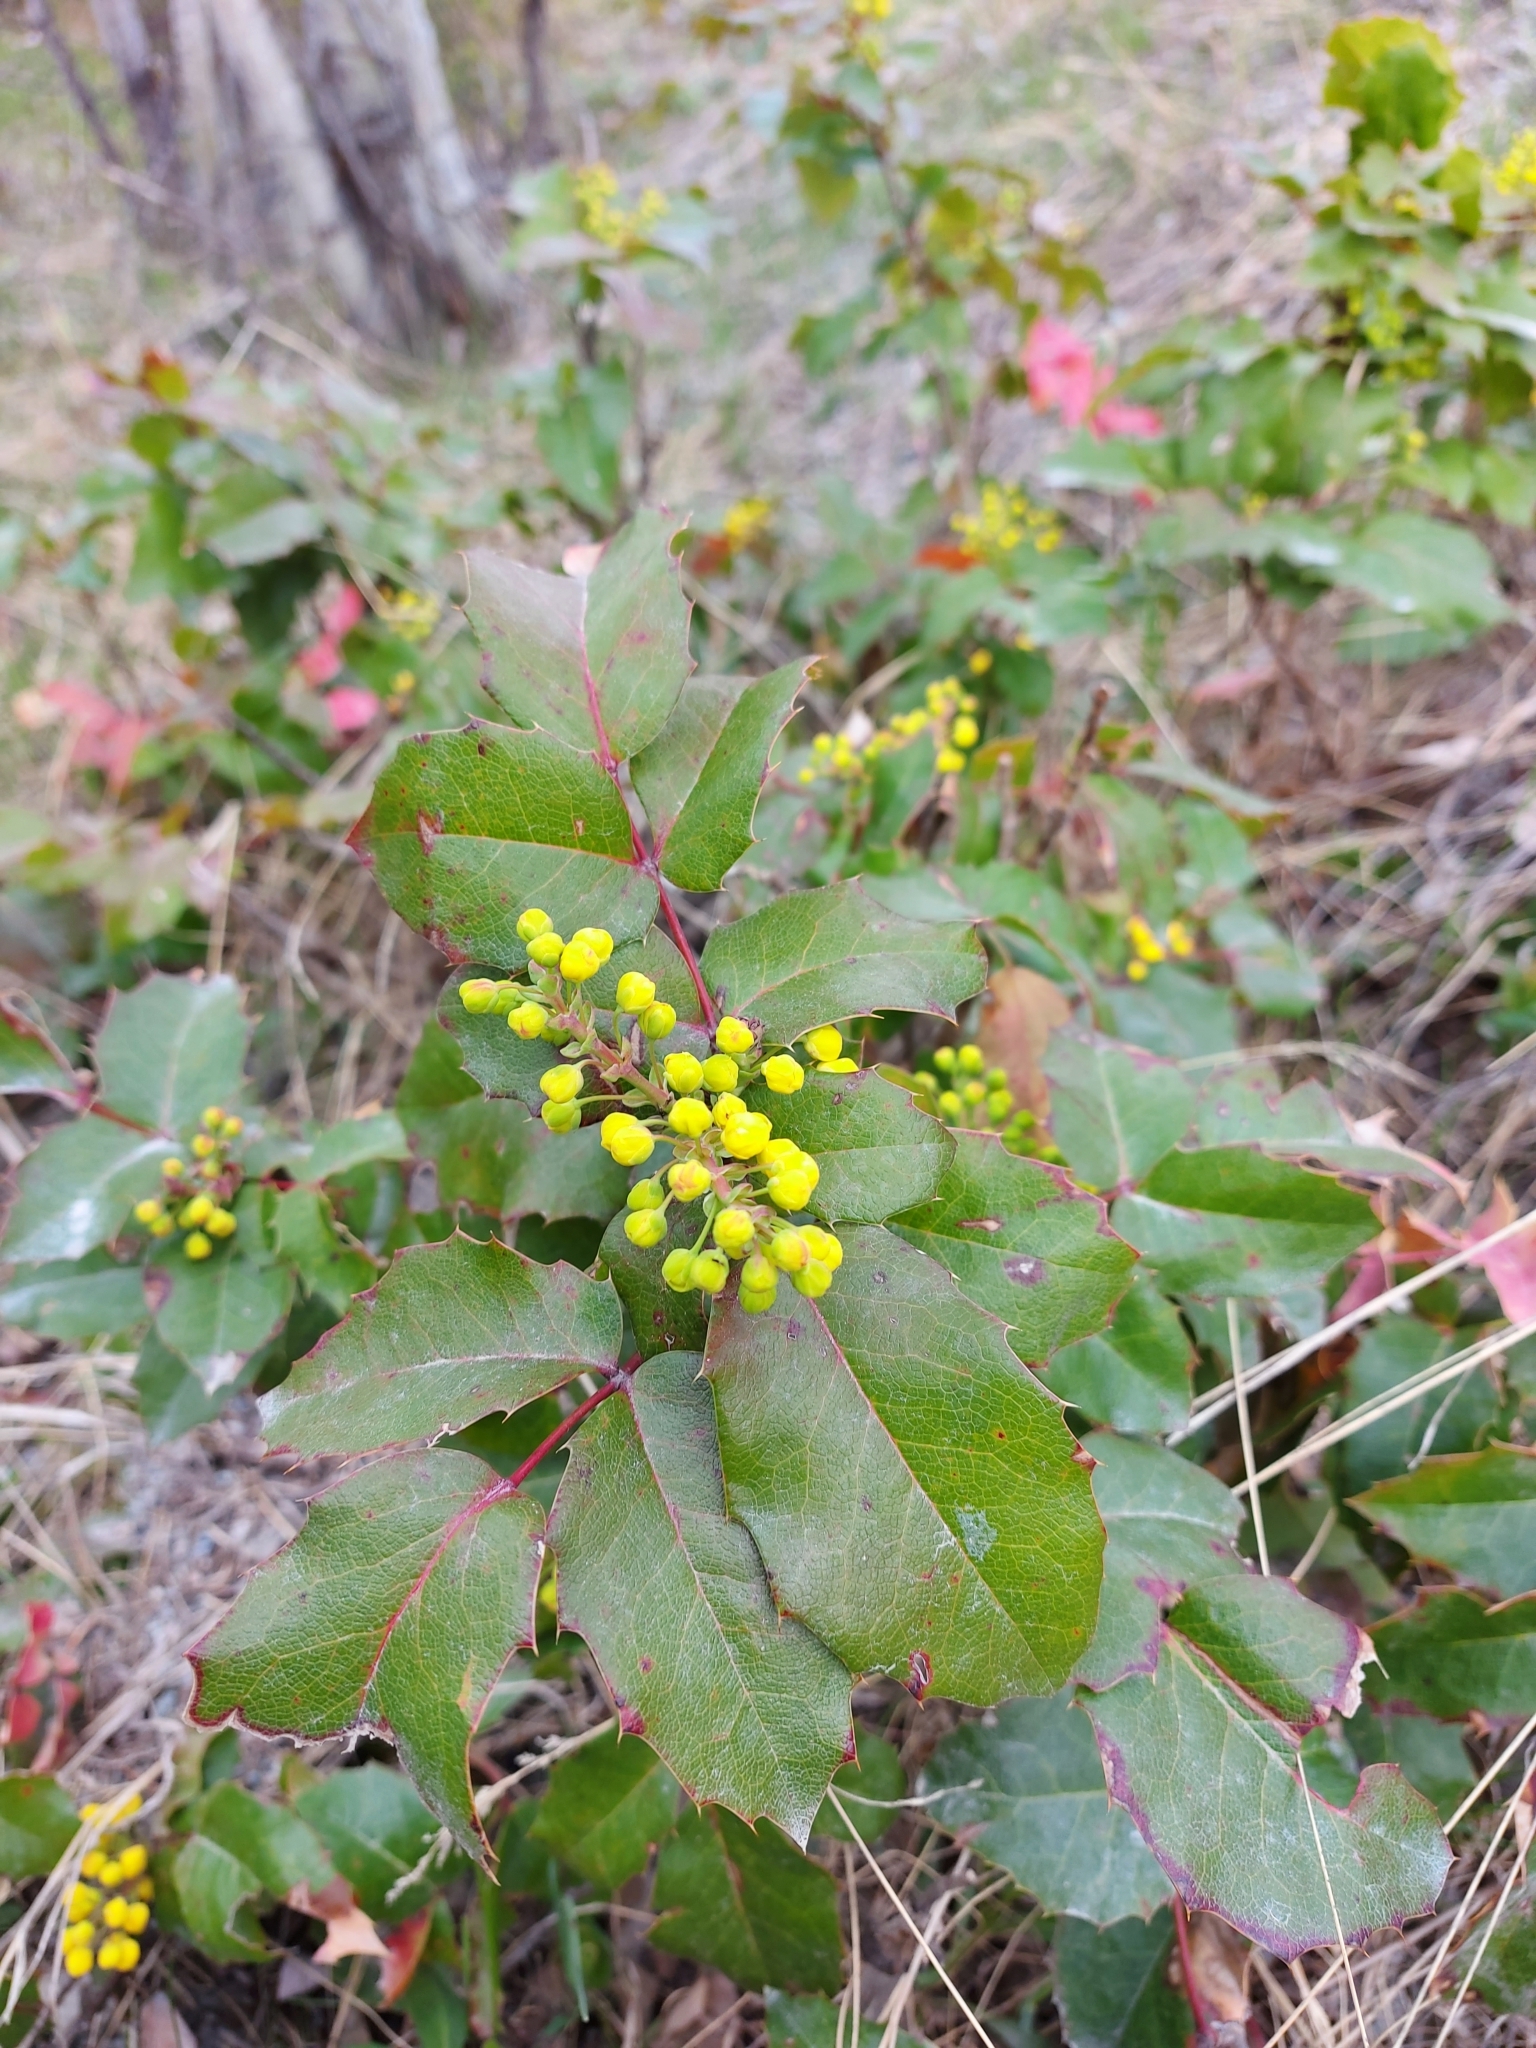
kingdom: Plantae
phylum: Tracheophyta
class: Magnoliopsida
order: Ranunculales
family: Berberidaceae
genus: Mahonia
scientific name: Mahonia aquifolium
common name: Oregon-grape
